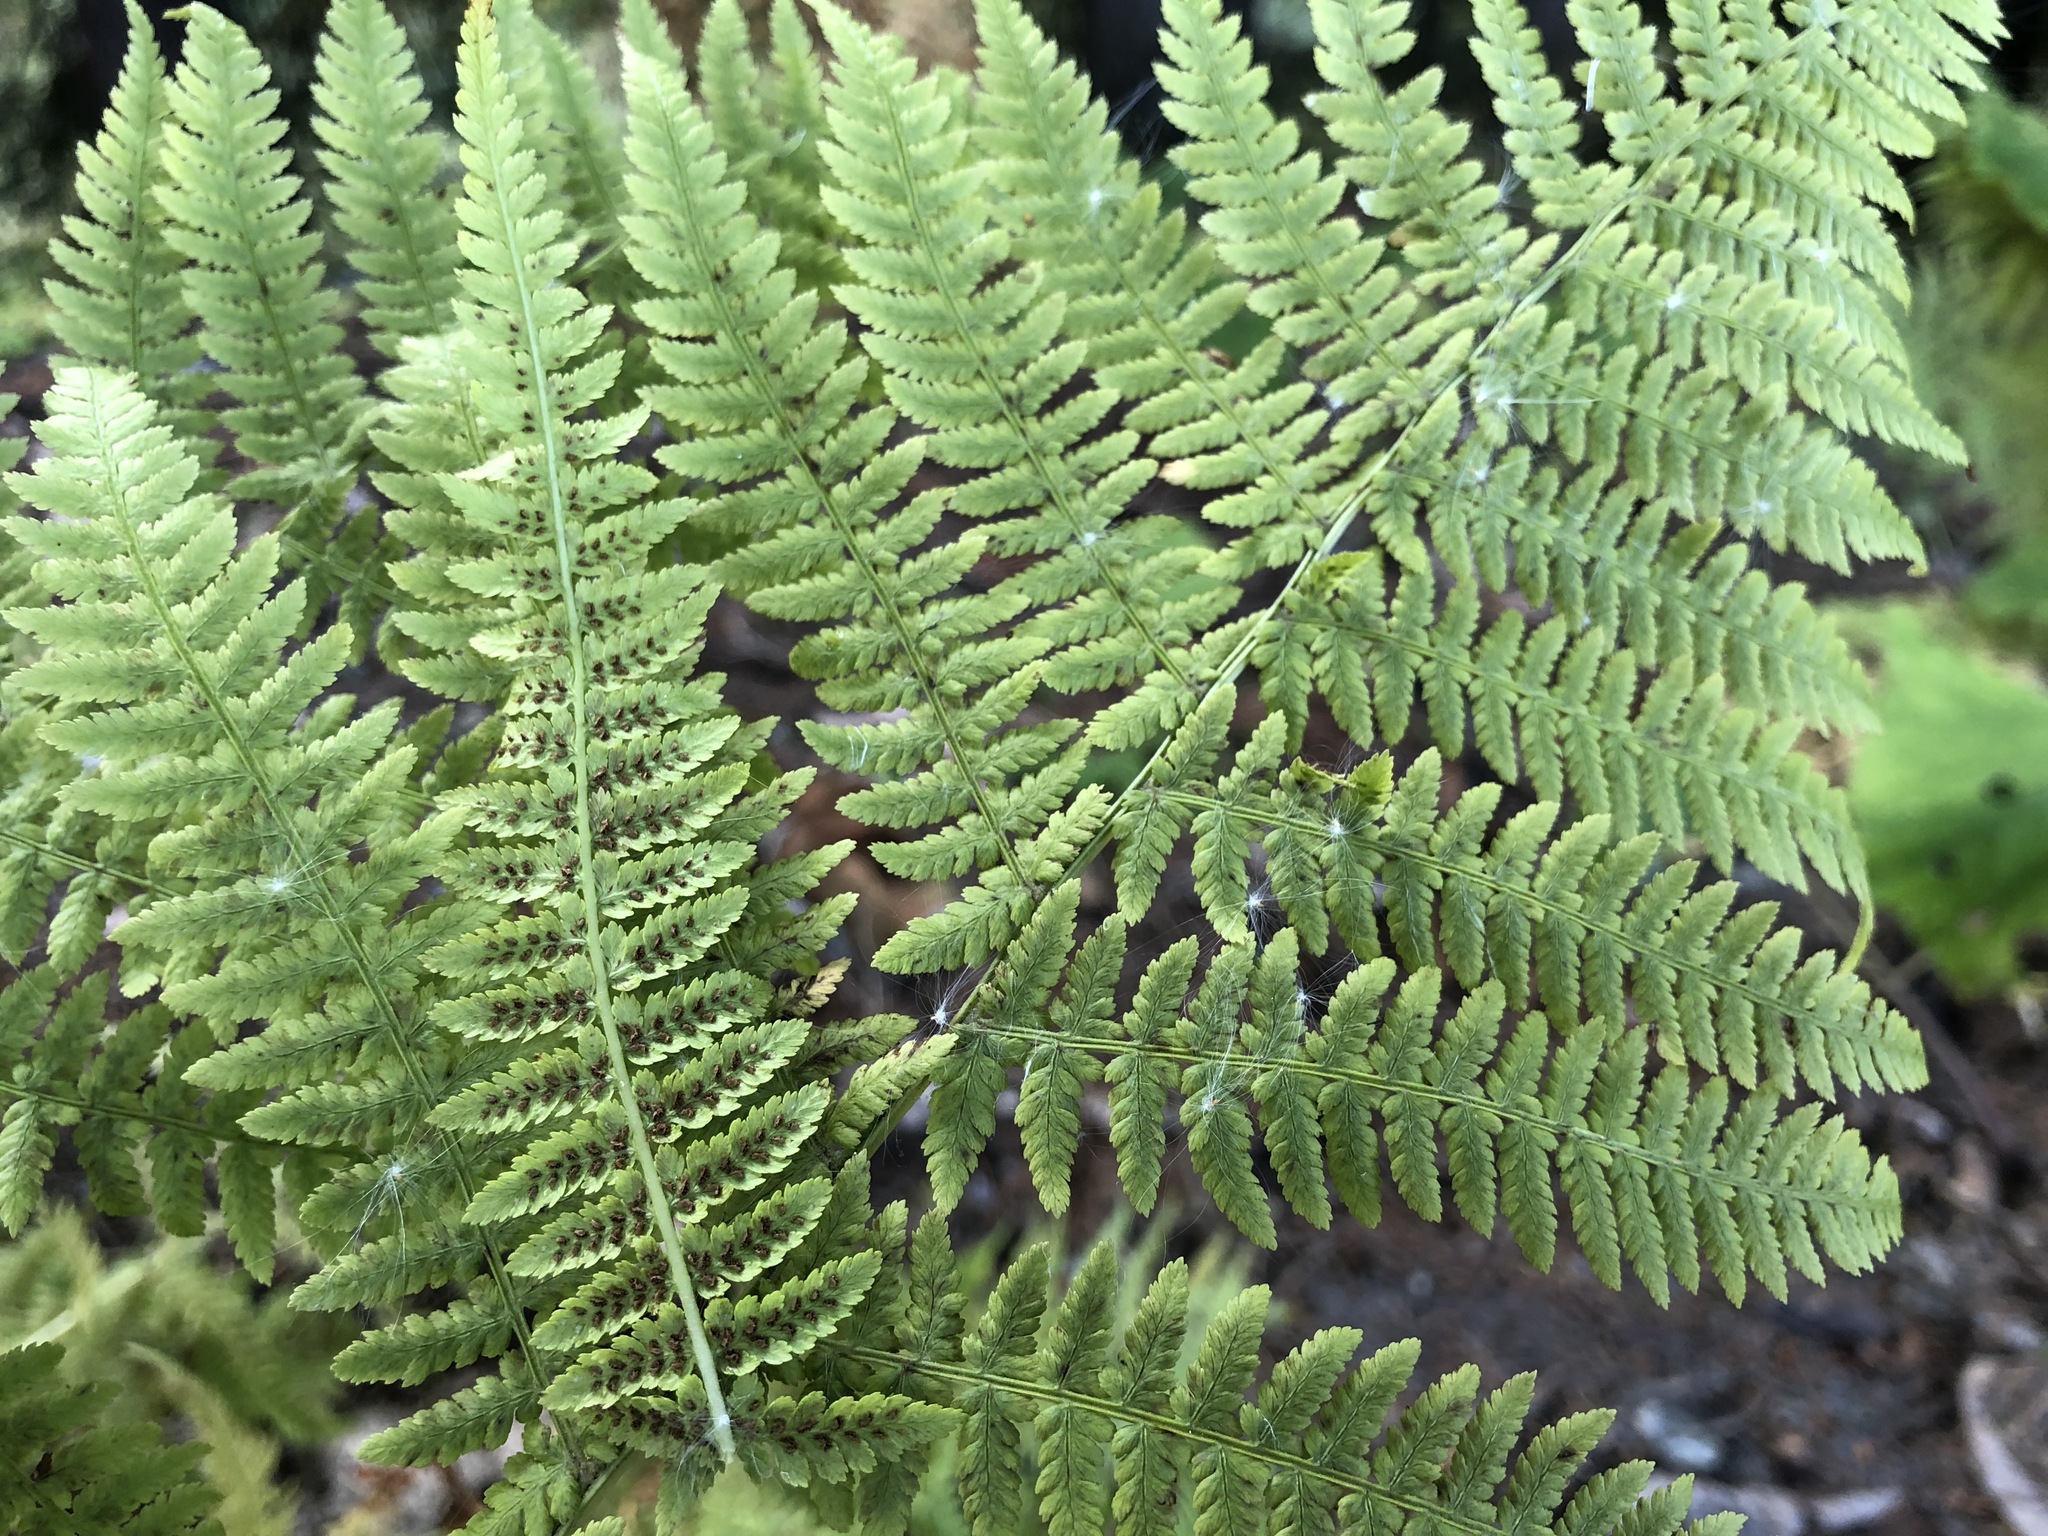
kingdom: Plantae
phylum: Tracheophyta
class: Polypodiopsida
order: Polypodiales
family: Athyriaceae
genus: Athyrium
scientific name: Athyrium filix-femina
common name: Lady fern
